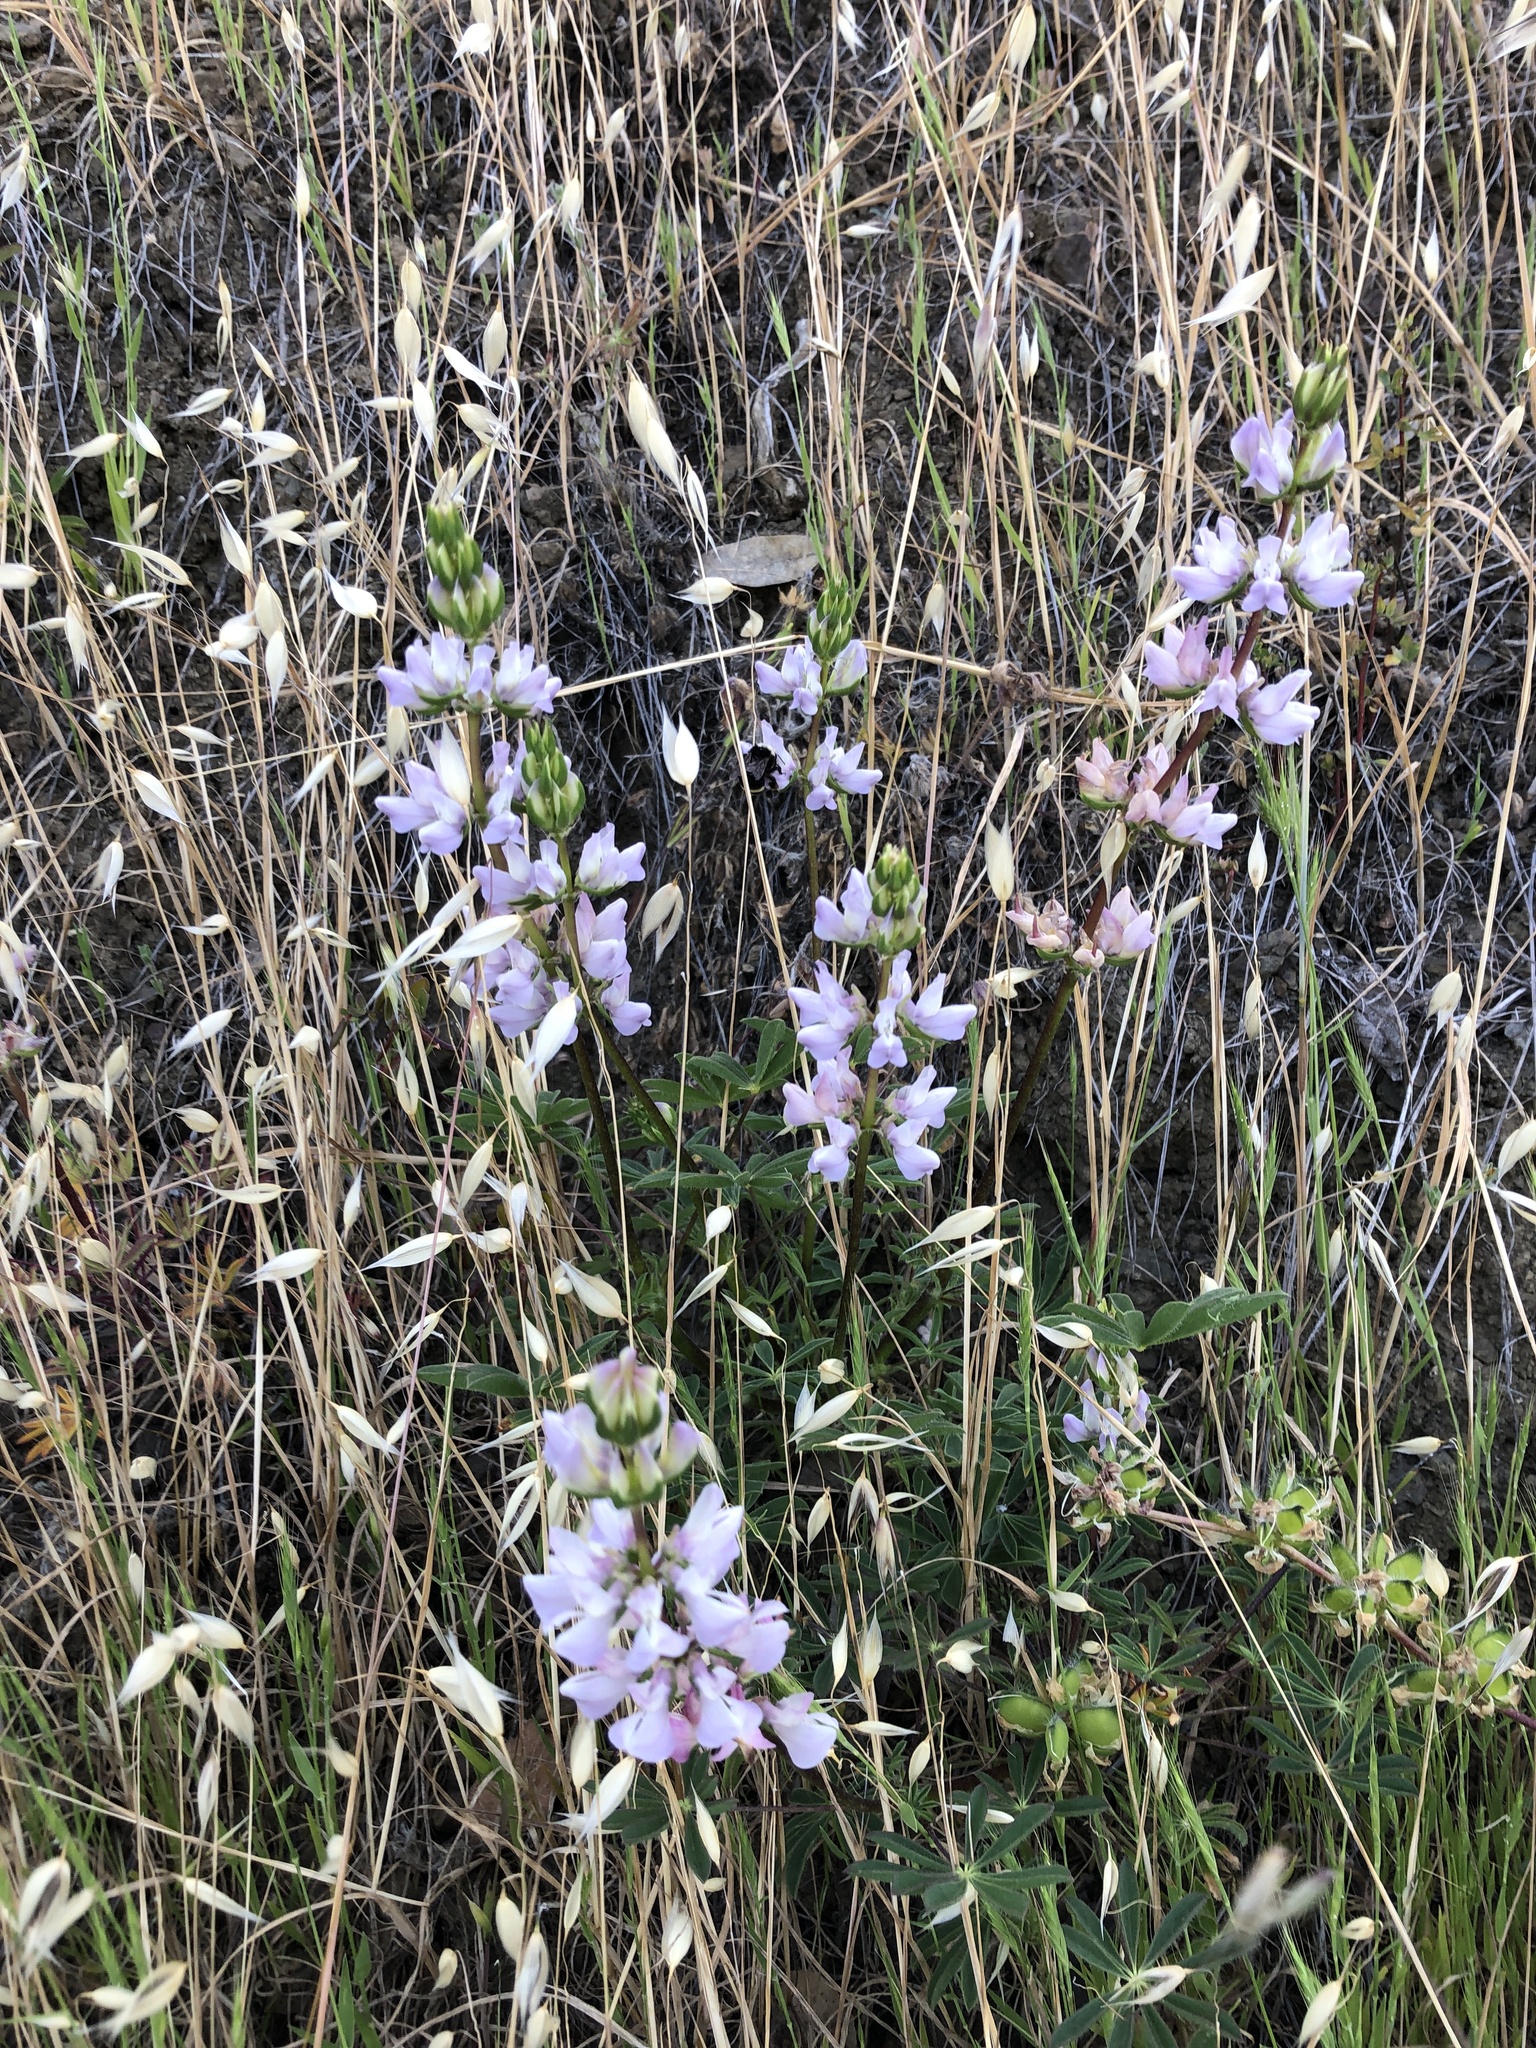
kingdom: Plantae
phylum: Tracheophyta
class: Magnoliopsida
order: Fabales
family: Fabaceae
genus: Lupinus
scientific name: Lupinus microcarpus
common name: Chick lupine
